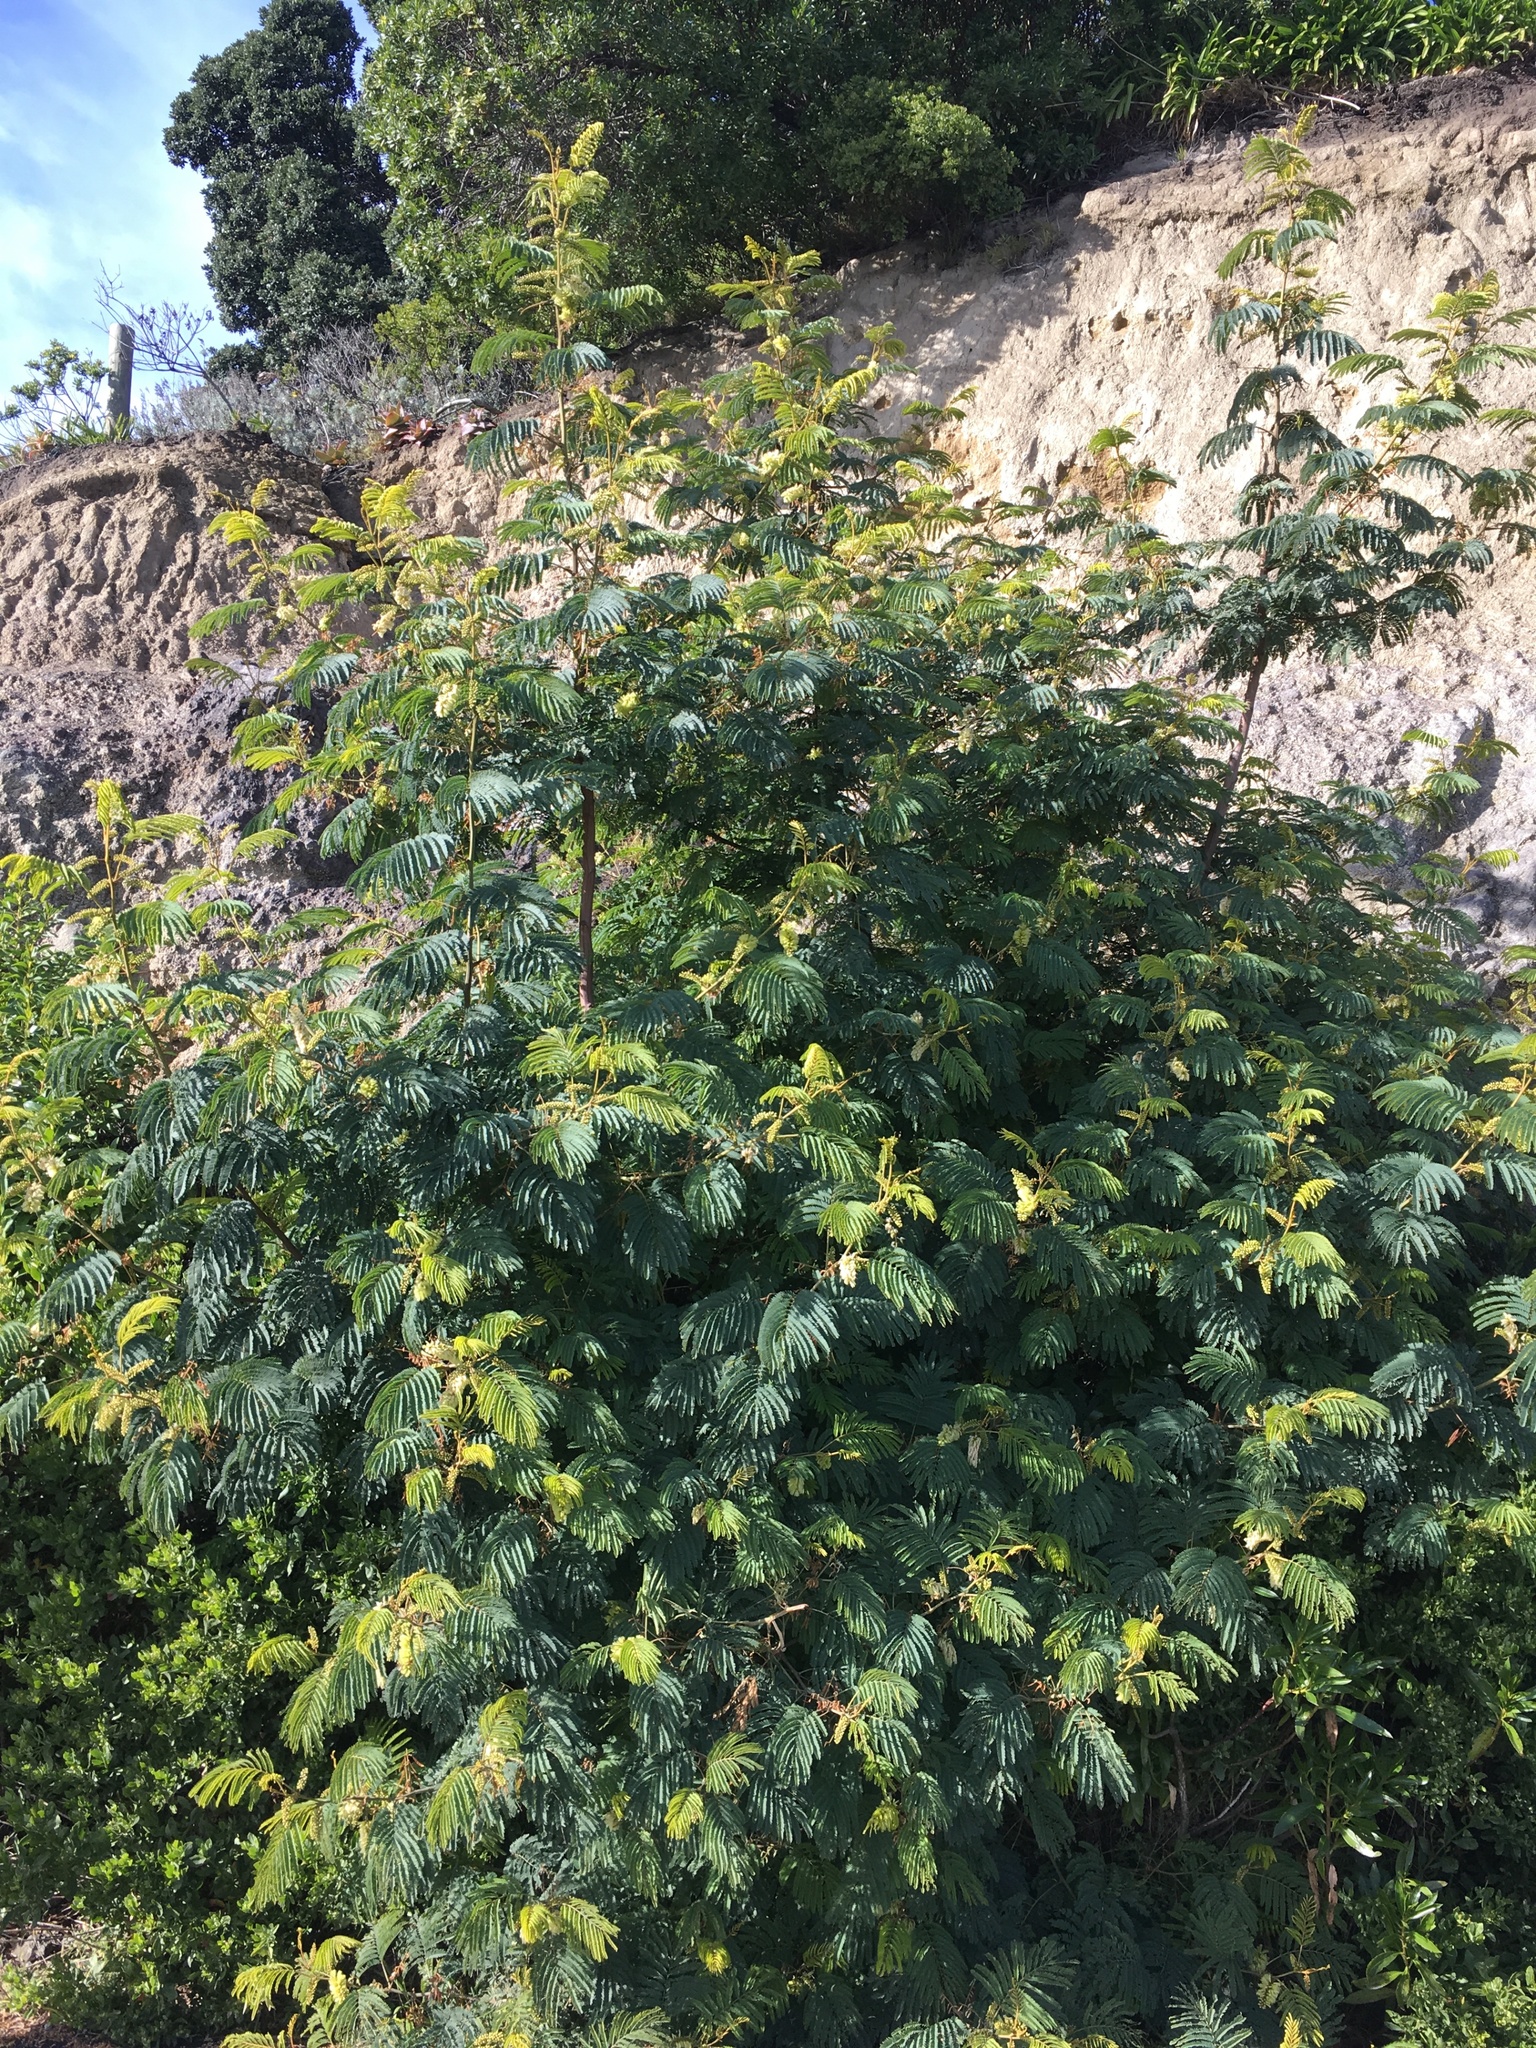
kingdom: Plantae
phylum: Tracheophyta
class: Magnoliopsida
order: Fabales
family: Fabaceae
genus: Paraserianthes
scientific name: Paraserianthes lophantha
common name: Plume albizia
